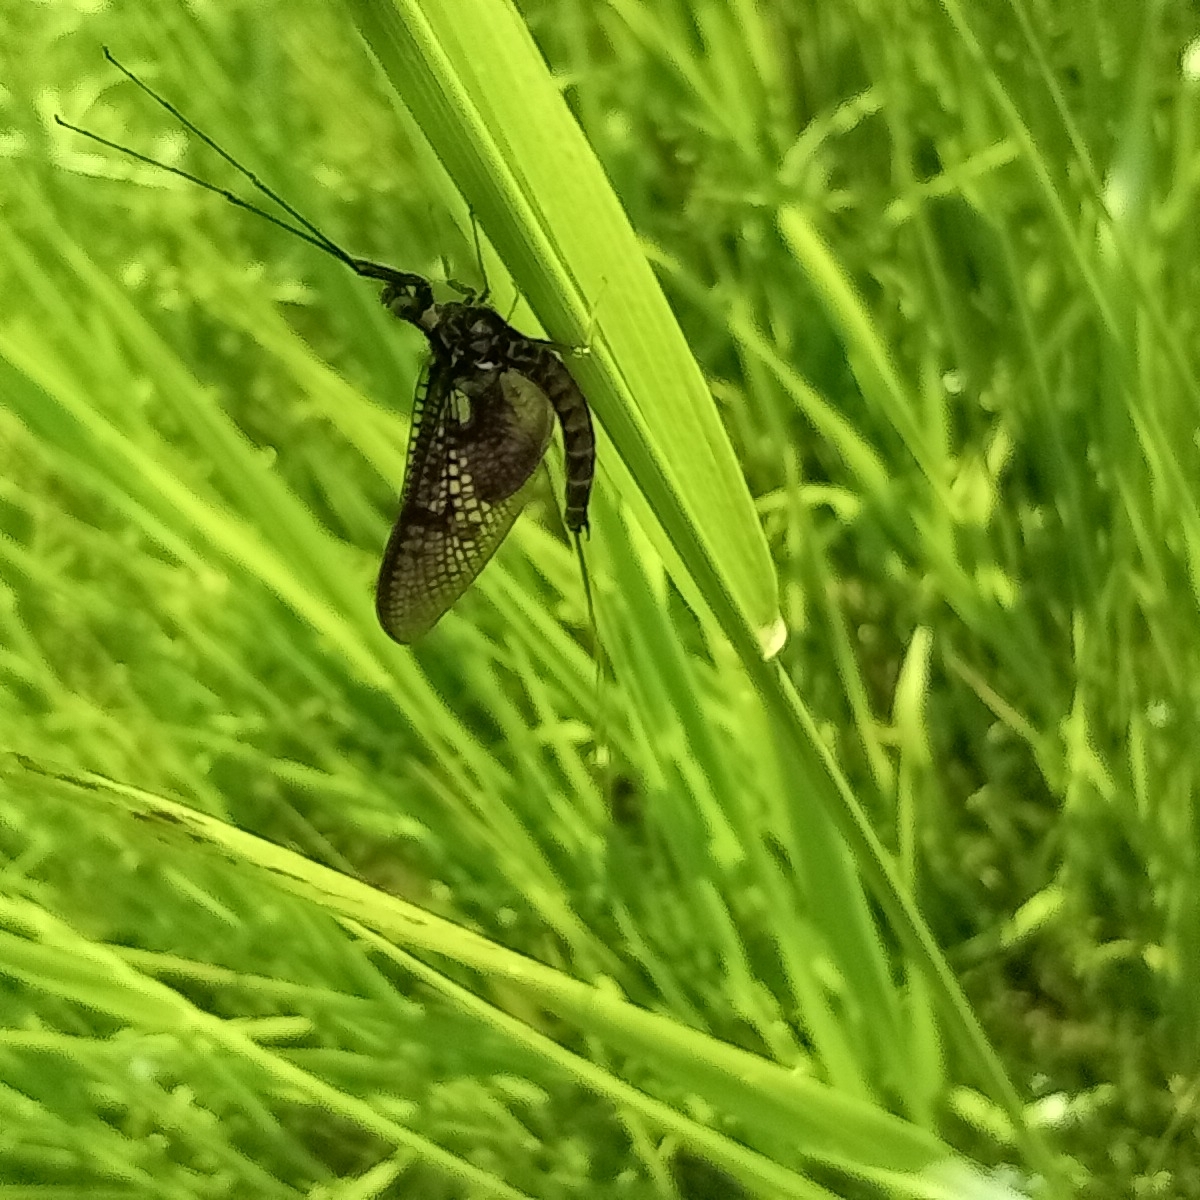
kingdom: Animalia
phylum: Arthropoda
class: Insecta
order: Ephemeroptera
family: Ephemeridae
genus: Ephemera
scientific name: Ephemera vulgata
